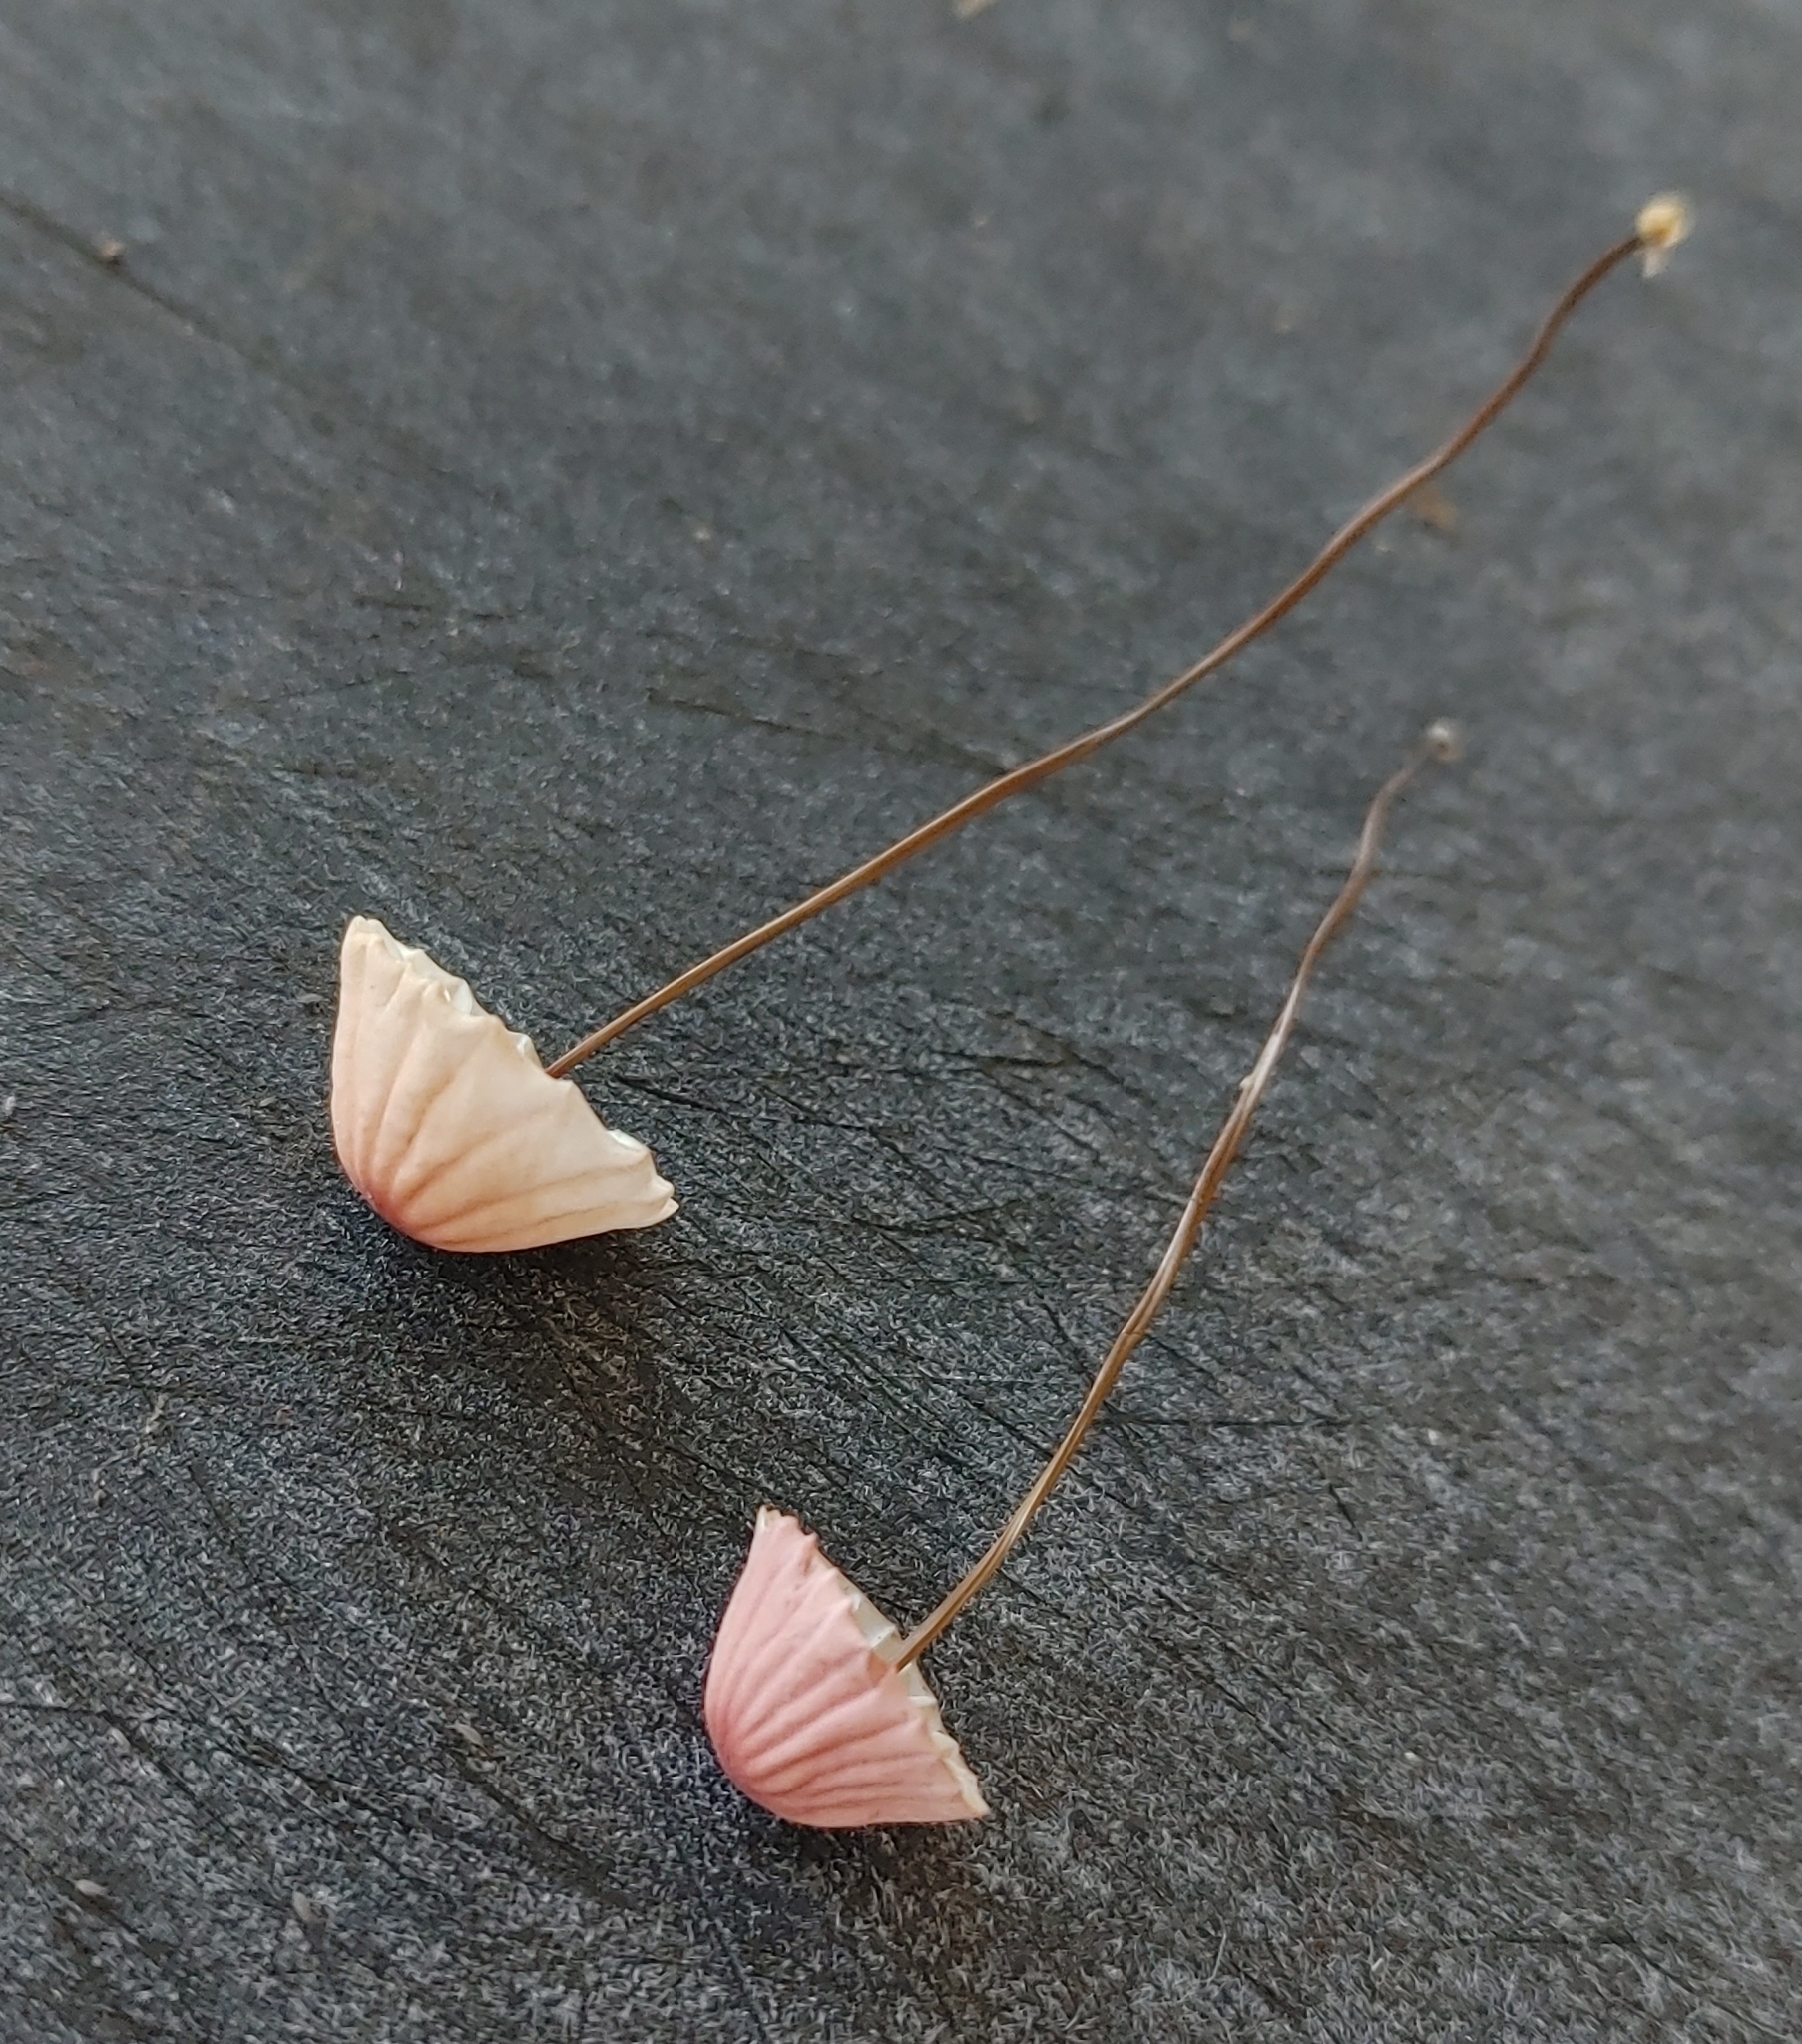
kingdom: Fungi
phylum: Basidiomycota
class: Agaricomycetes
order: Agaricales
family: Marasmiaceae
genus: Marasmius
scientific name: Marasmius pulcherripes
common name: Rosy parachute
